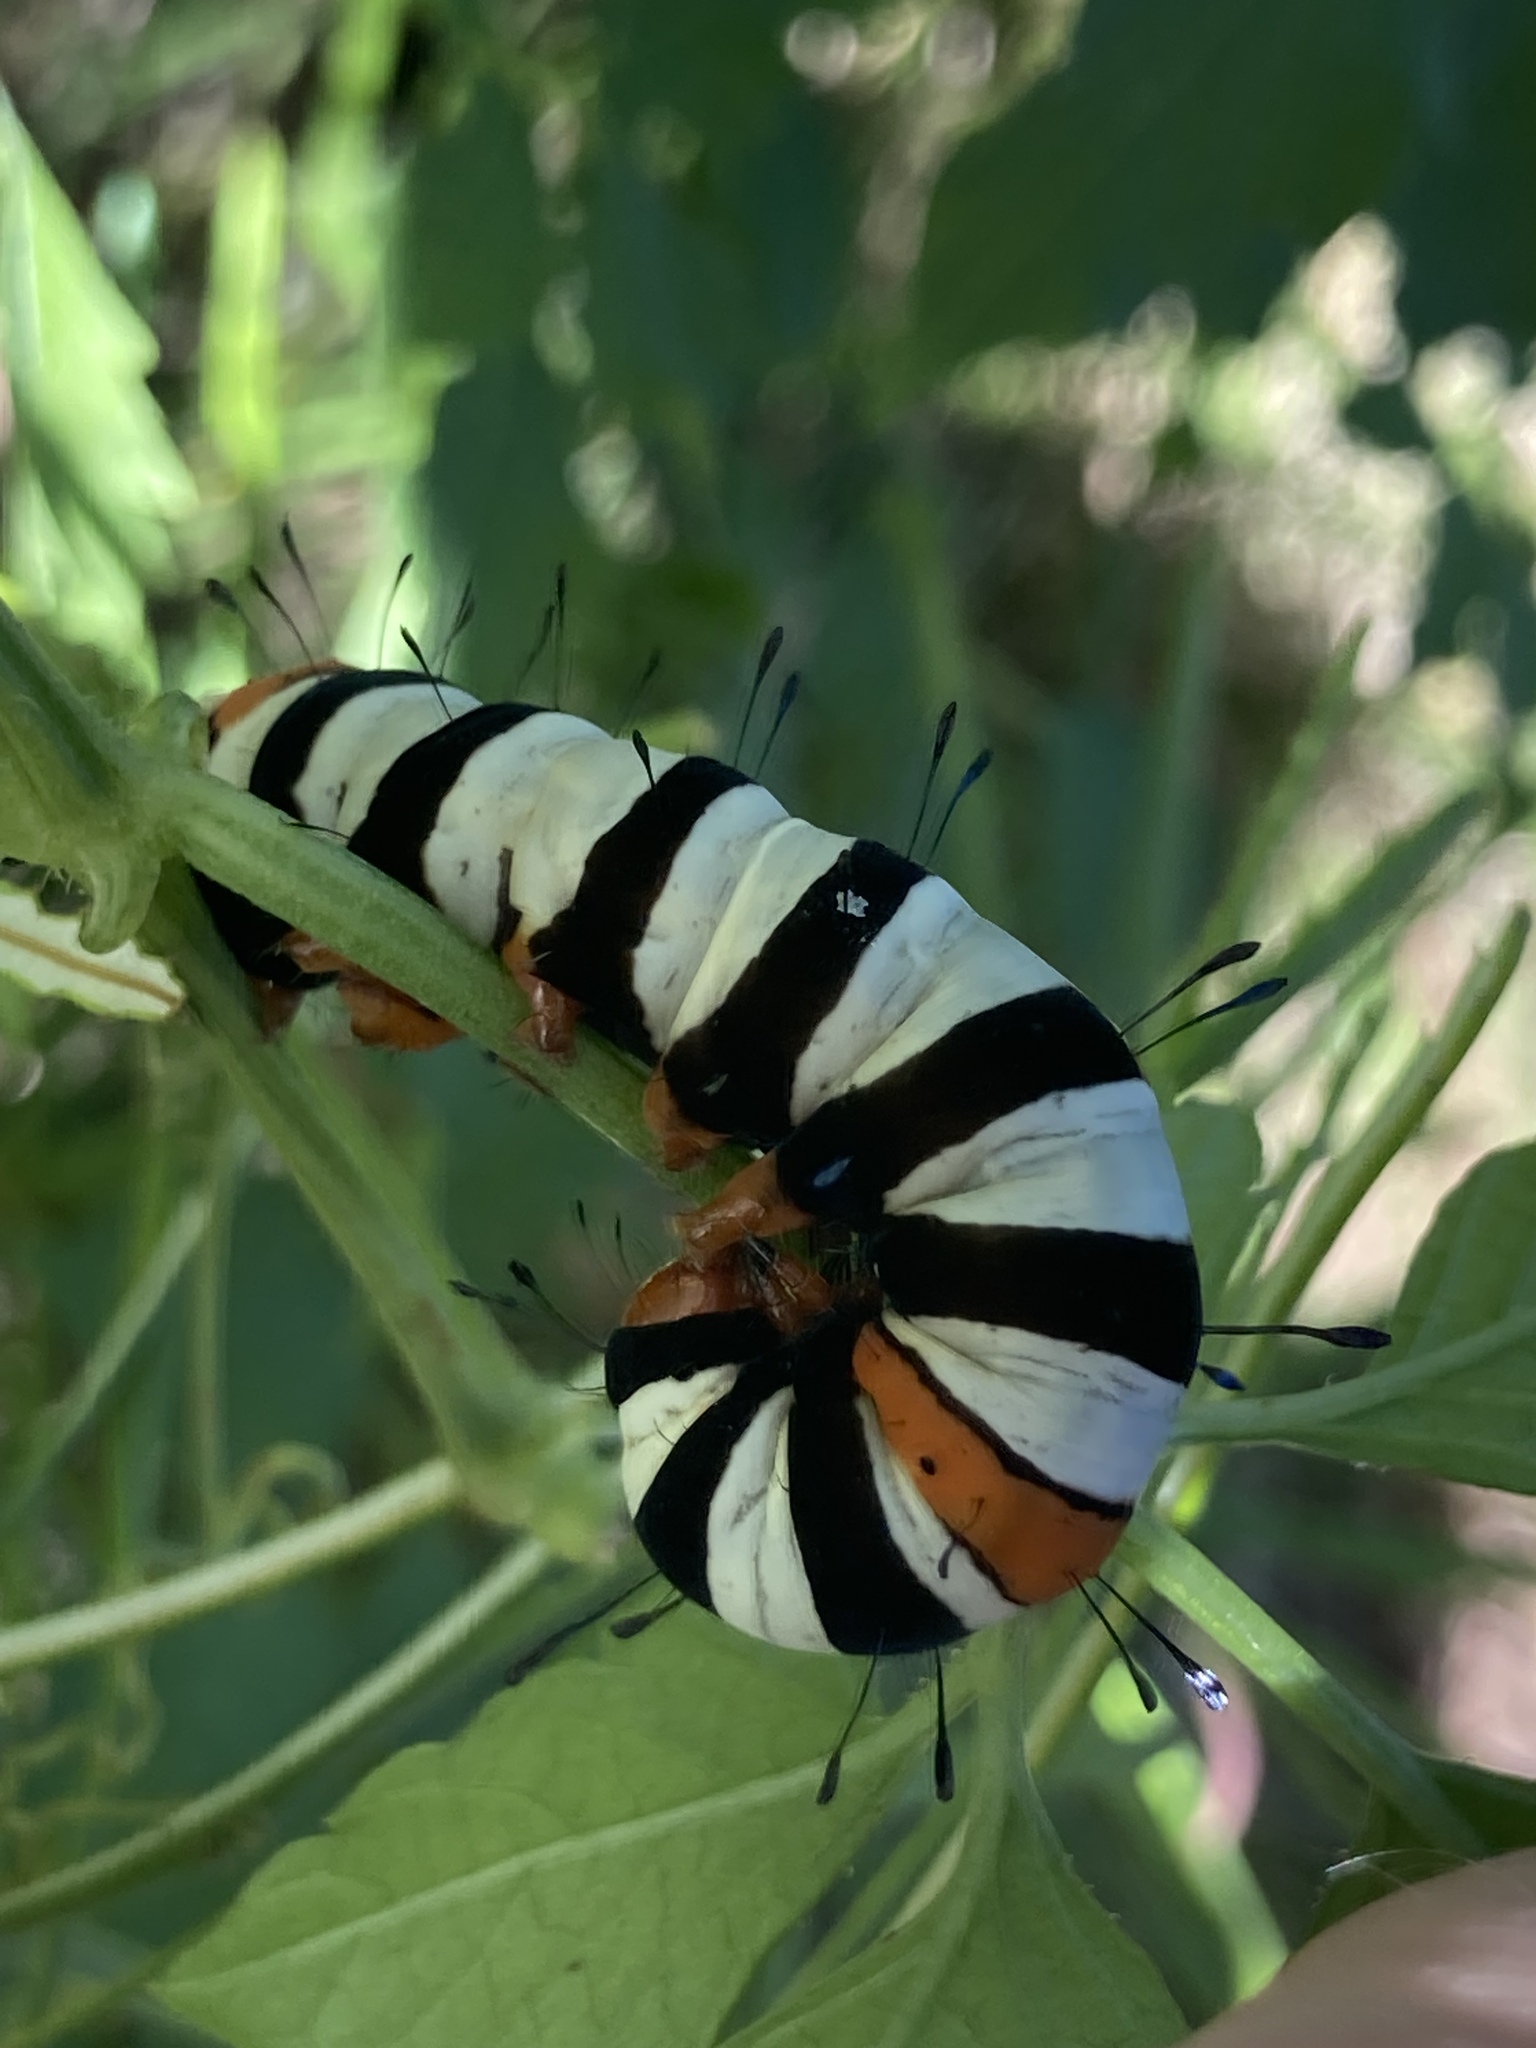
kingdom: Animalia
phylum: Arthropoda
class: Insecta
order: Lepidoptera
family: Noctuidae
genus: Agarista
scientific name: Agarista agricola
